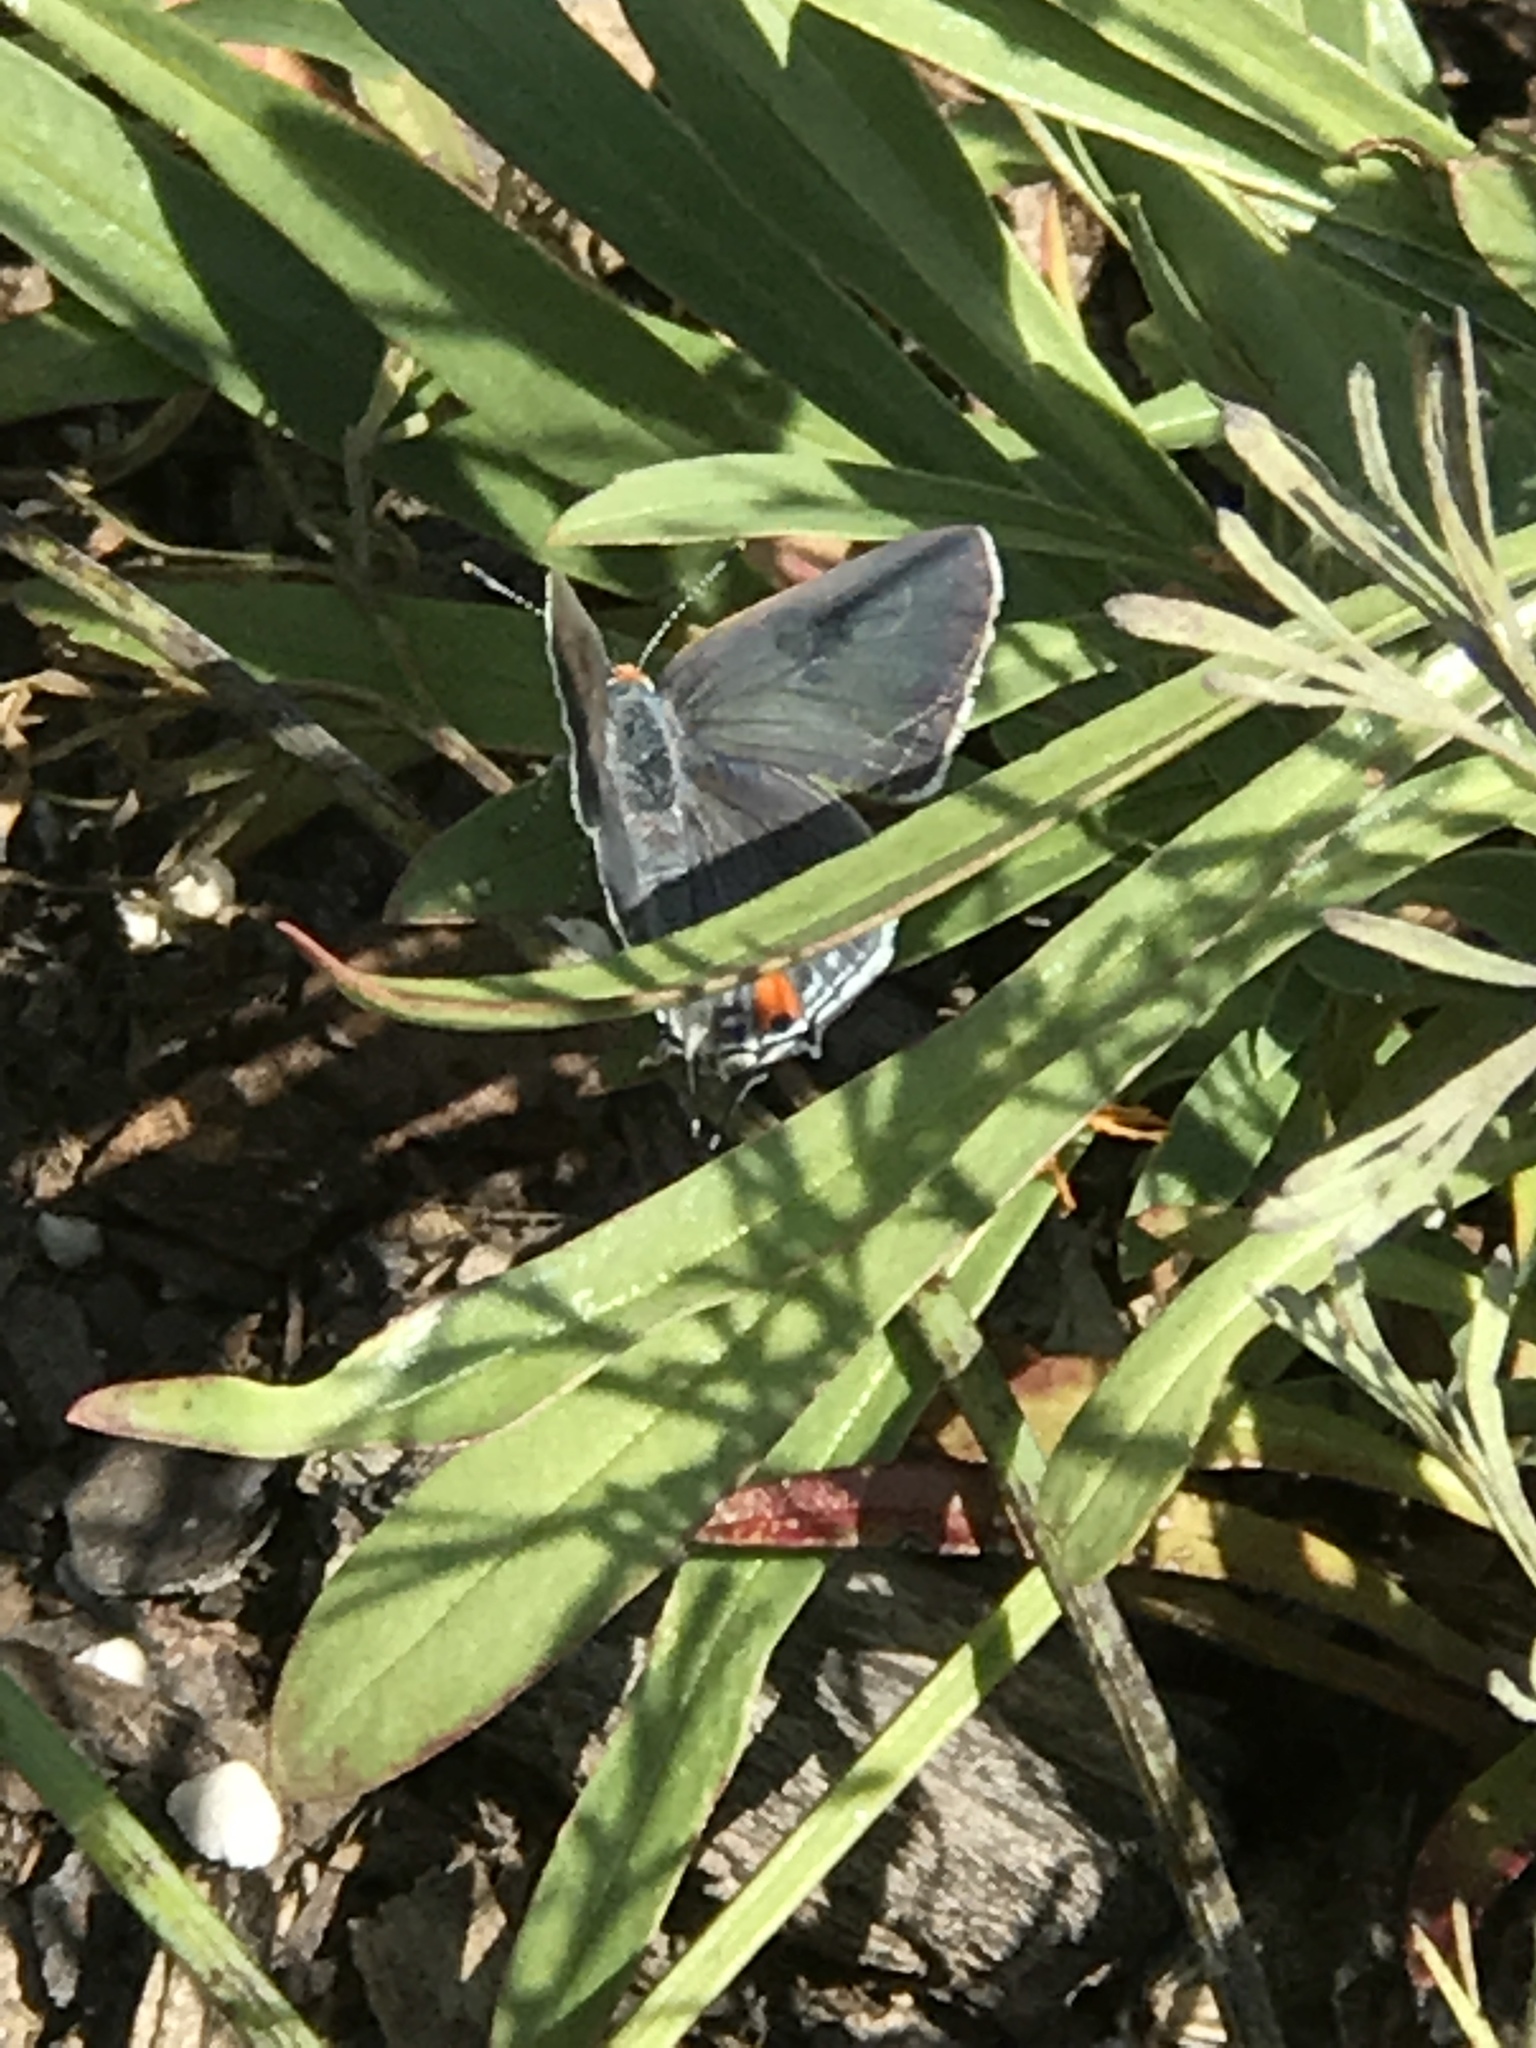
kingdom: Animalia
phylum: Arthropoda
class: Insecta
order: Lepidoptera
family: Lycaenidae
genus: Strymon
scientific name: Strymon melinus
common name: Gray hairstreak
